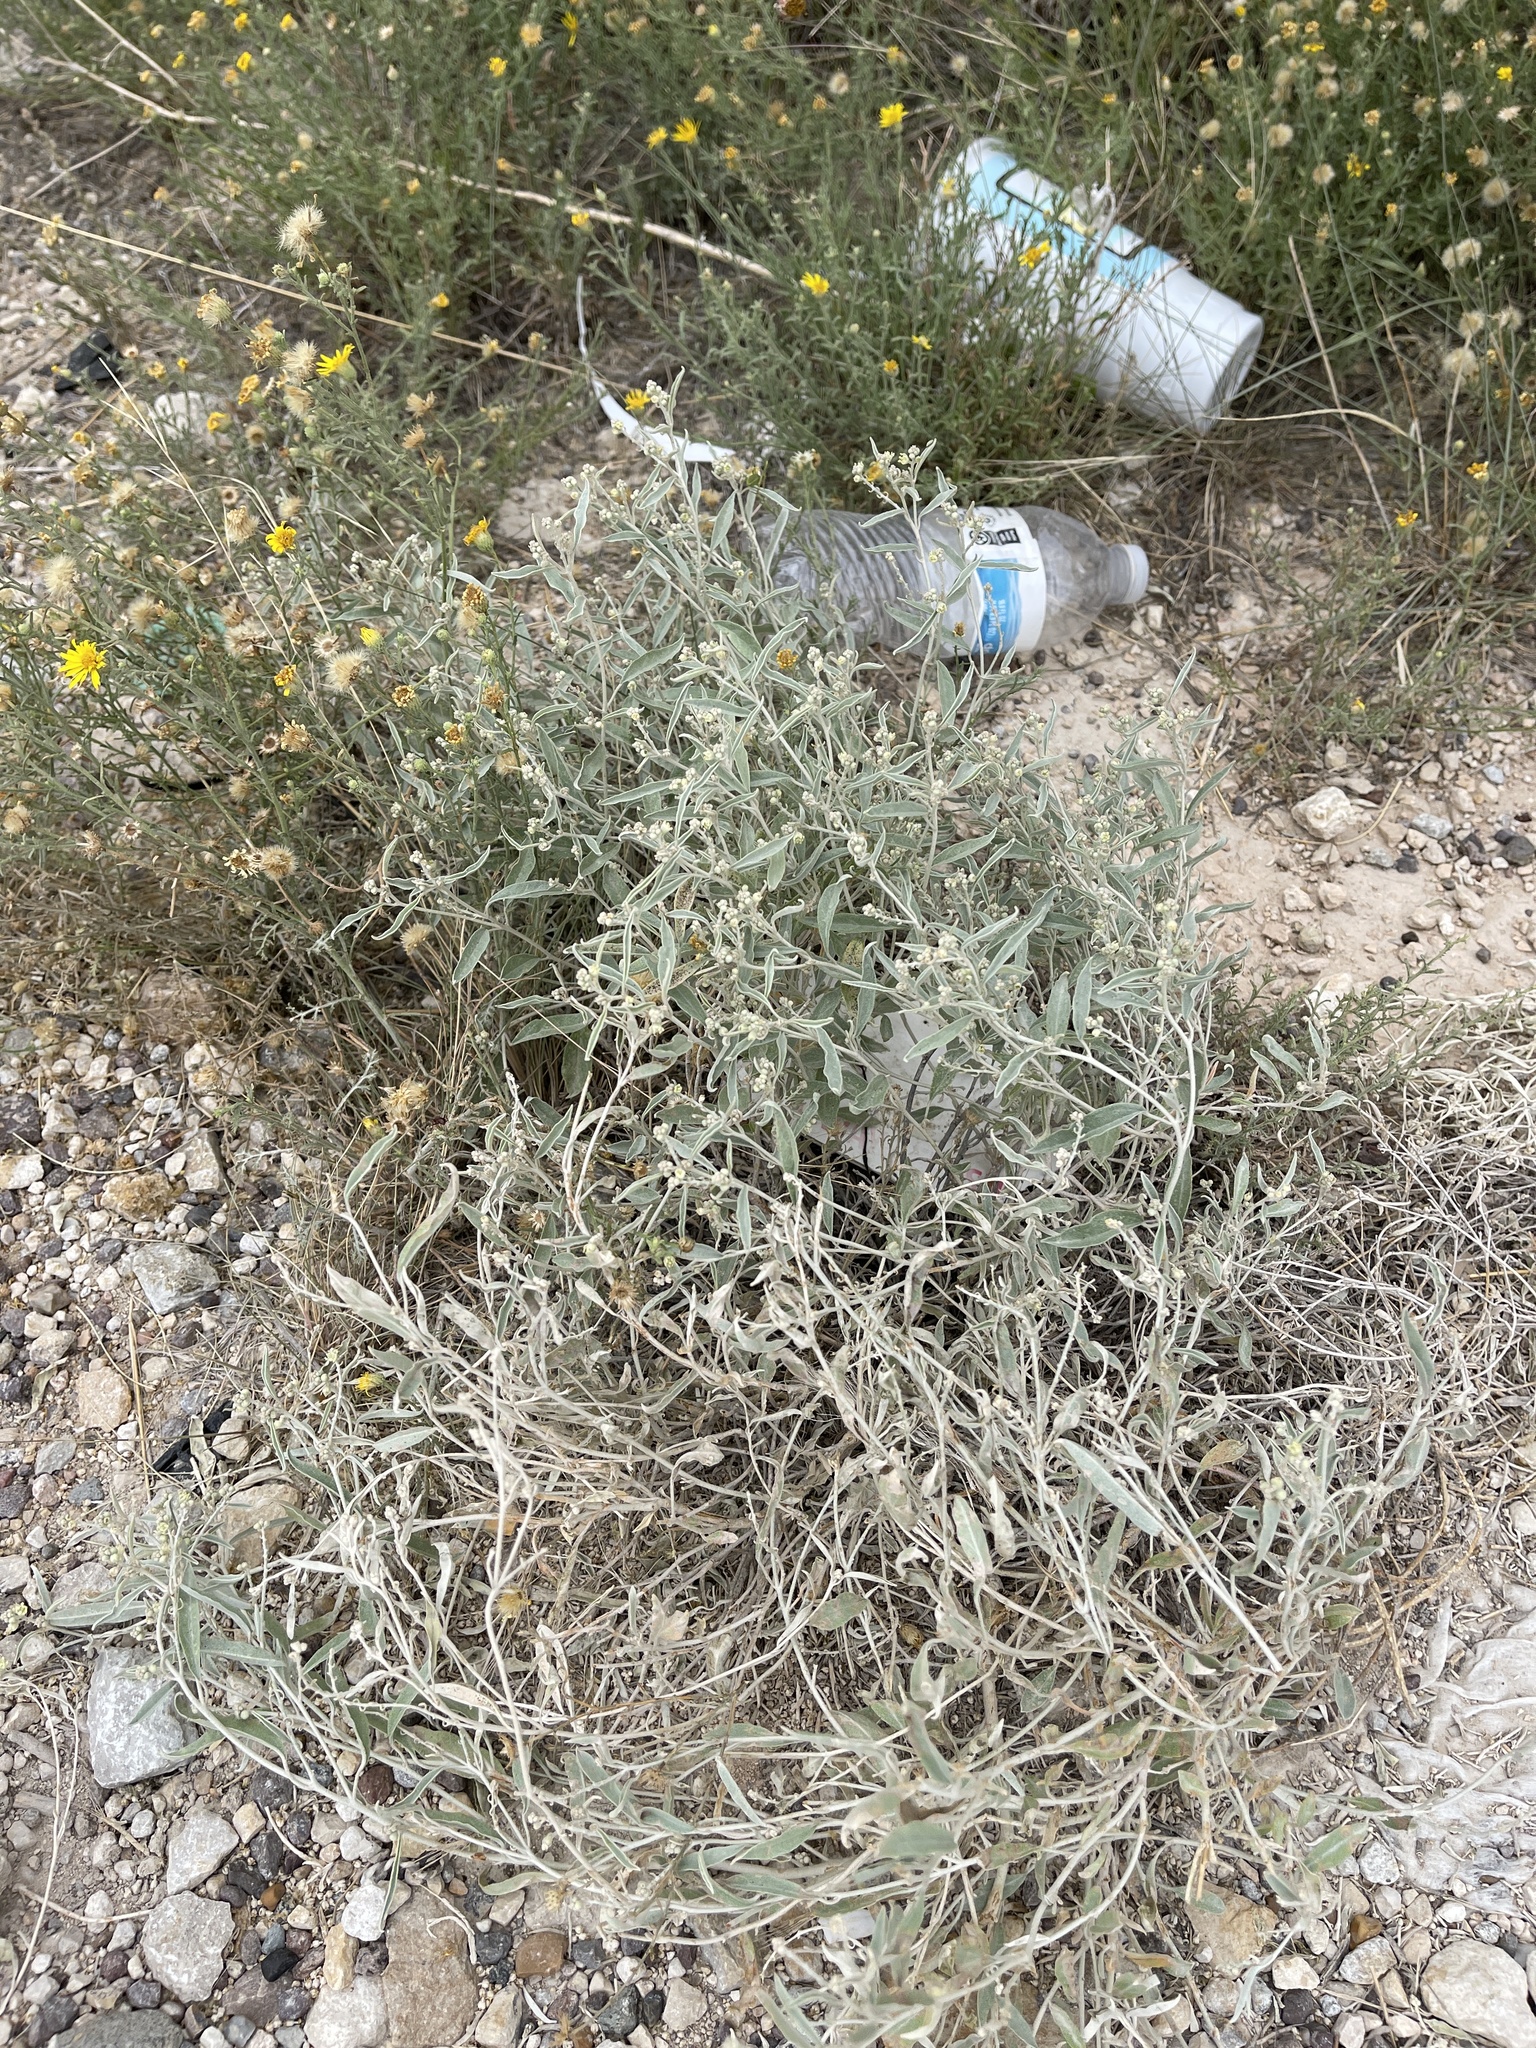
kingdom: Plantae
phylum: Tracheophyta
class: Magnoliopsida
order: Malpighiales
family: Euphorbiaceae
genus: Croton
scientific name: Croton dioicus
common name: Grassland croton
